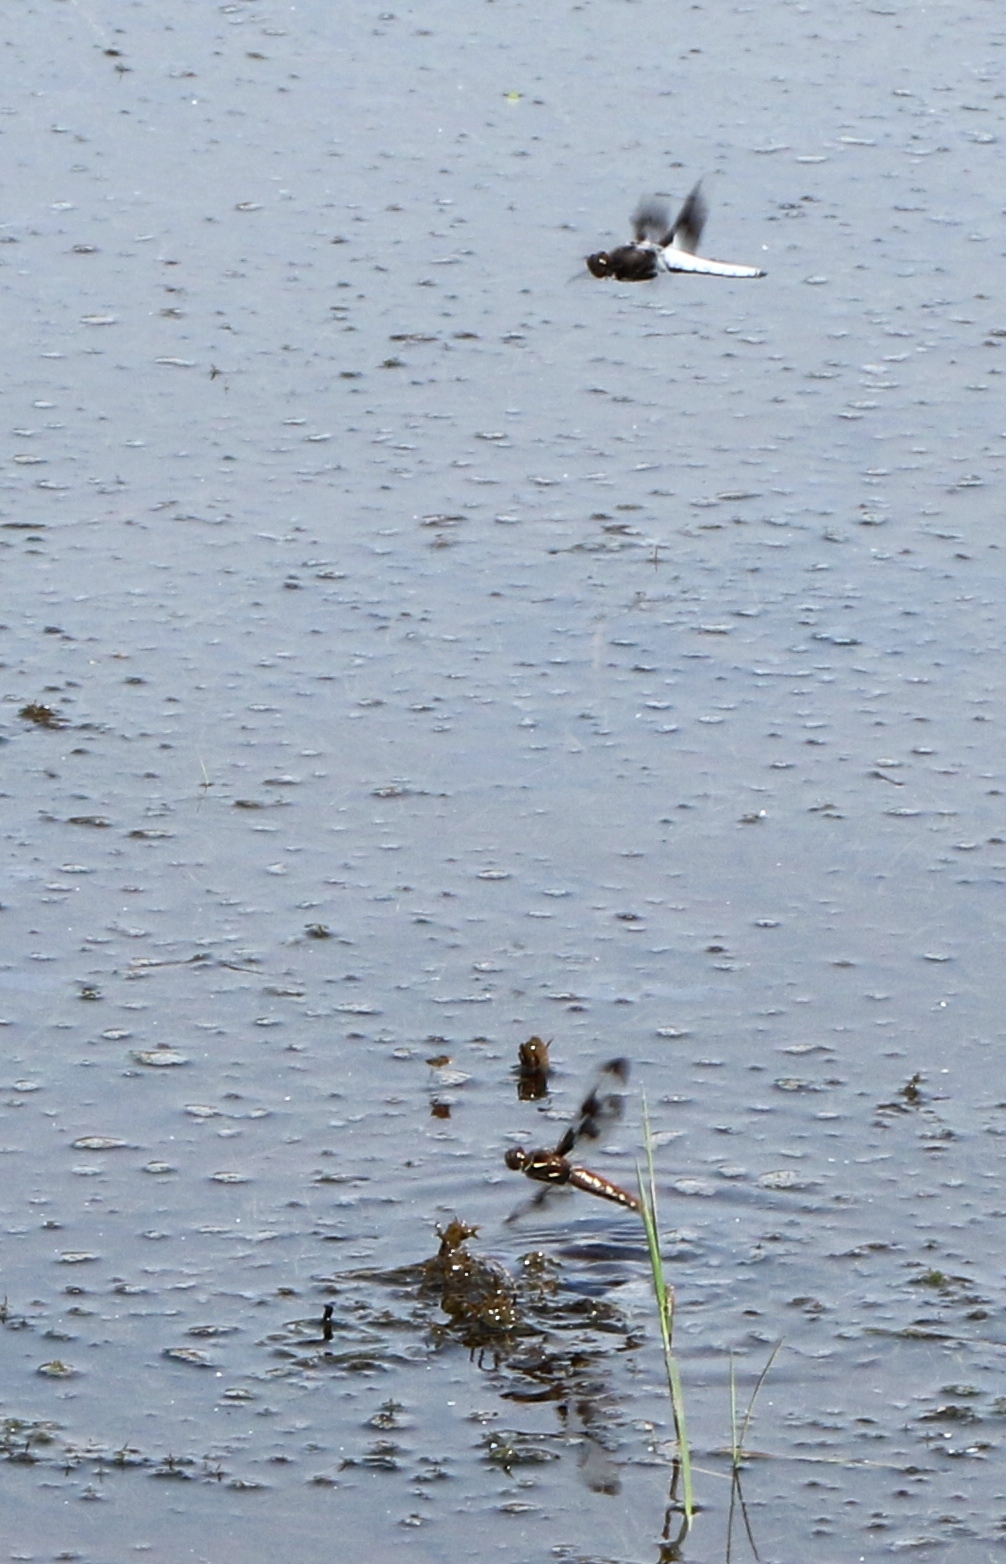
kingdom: Animalia
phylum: Arthropoda
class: Insecta
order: Odonata
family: Libellulidae
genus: Plathemis
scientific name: Plathemis lydia
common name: Common whitetail
